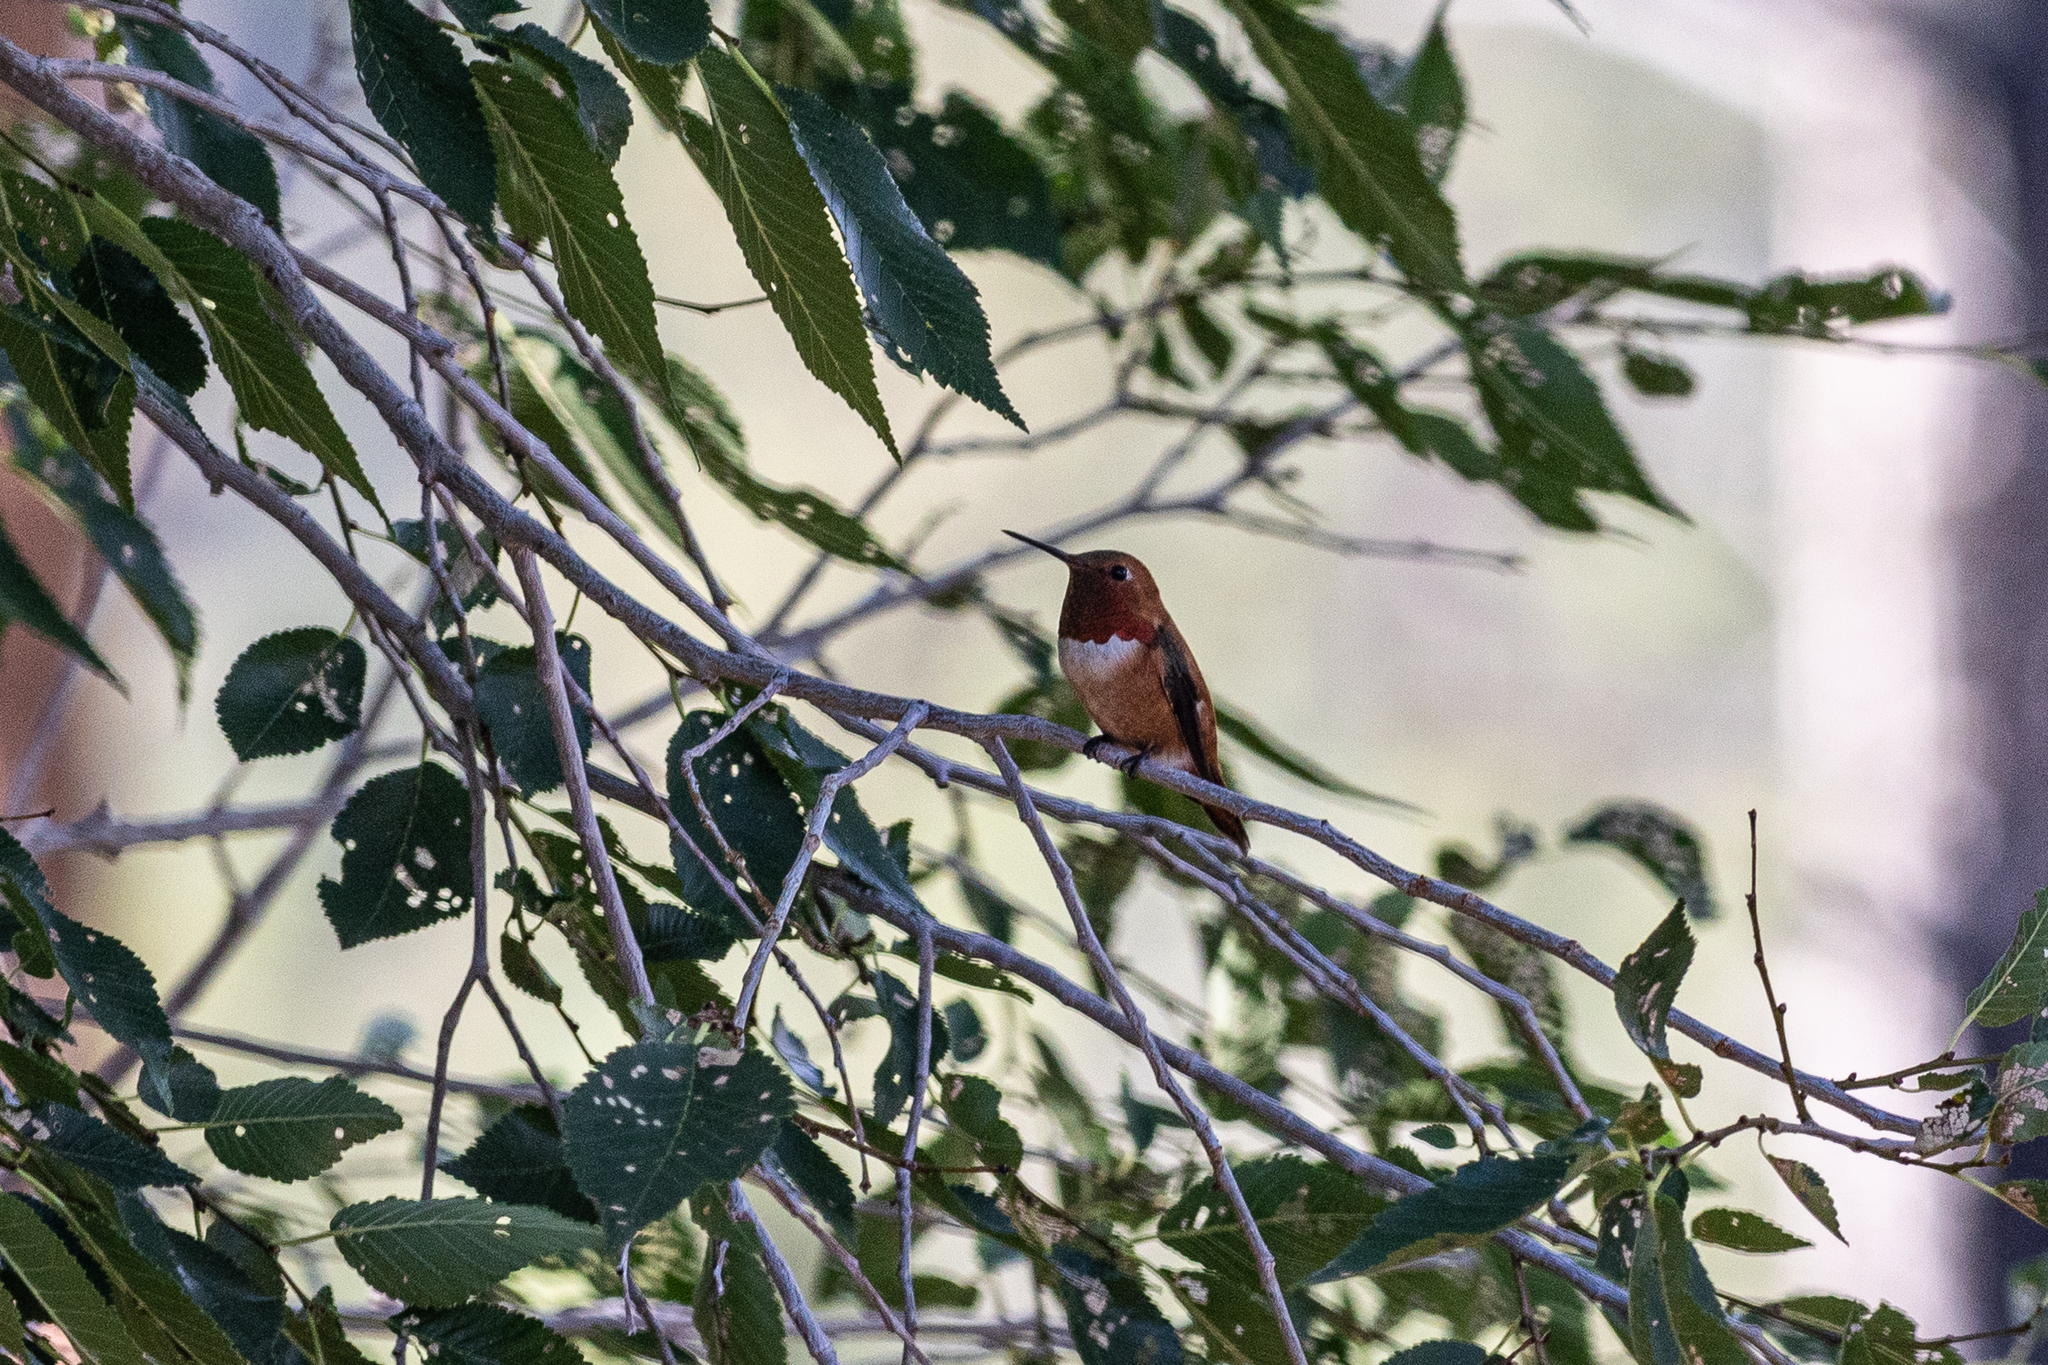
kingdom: Animalia
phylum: Chordata
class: Aves
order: Apodiformes
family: Trochilidae
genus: Selasphorus
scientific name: Selasphorus rufus
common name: Rufous hummingbird
